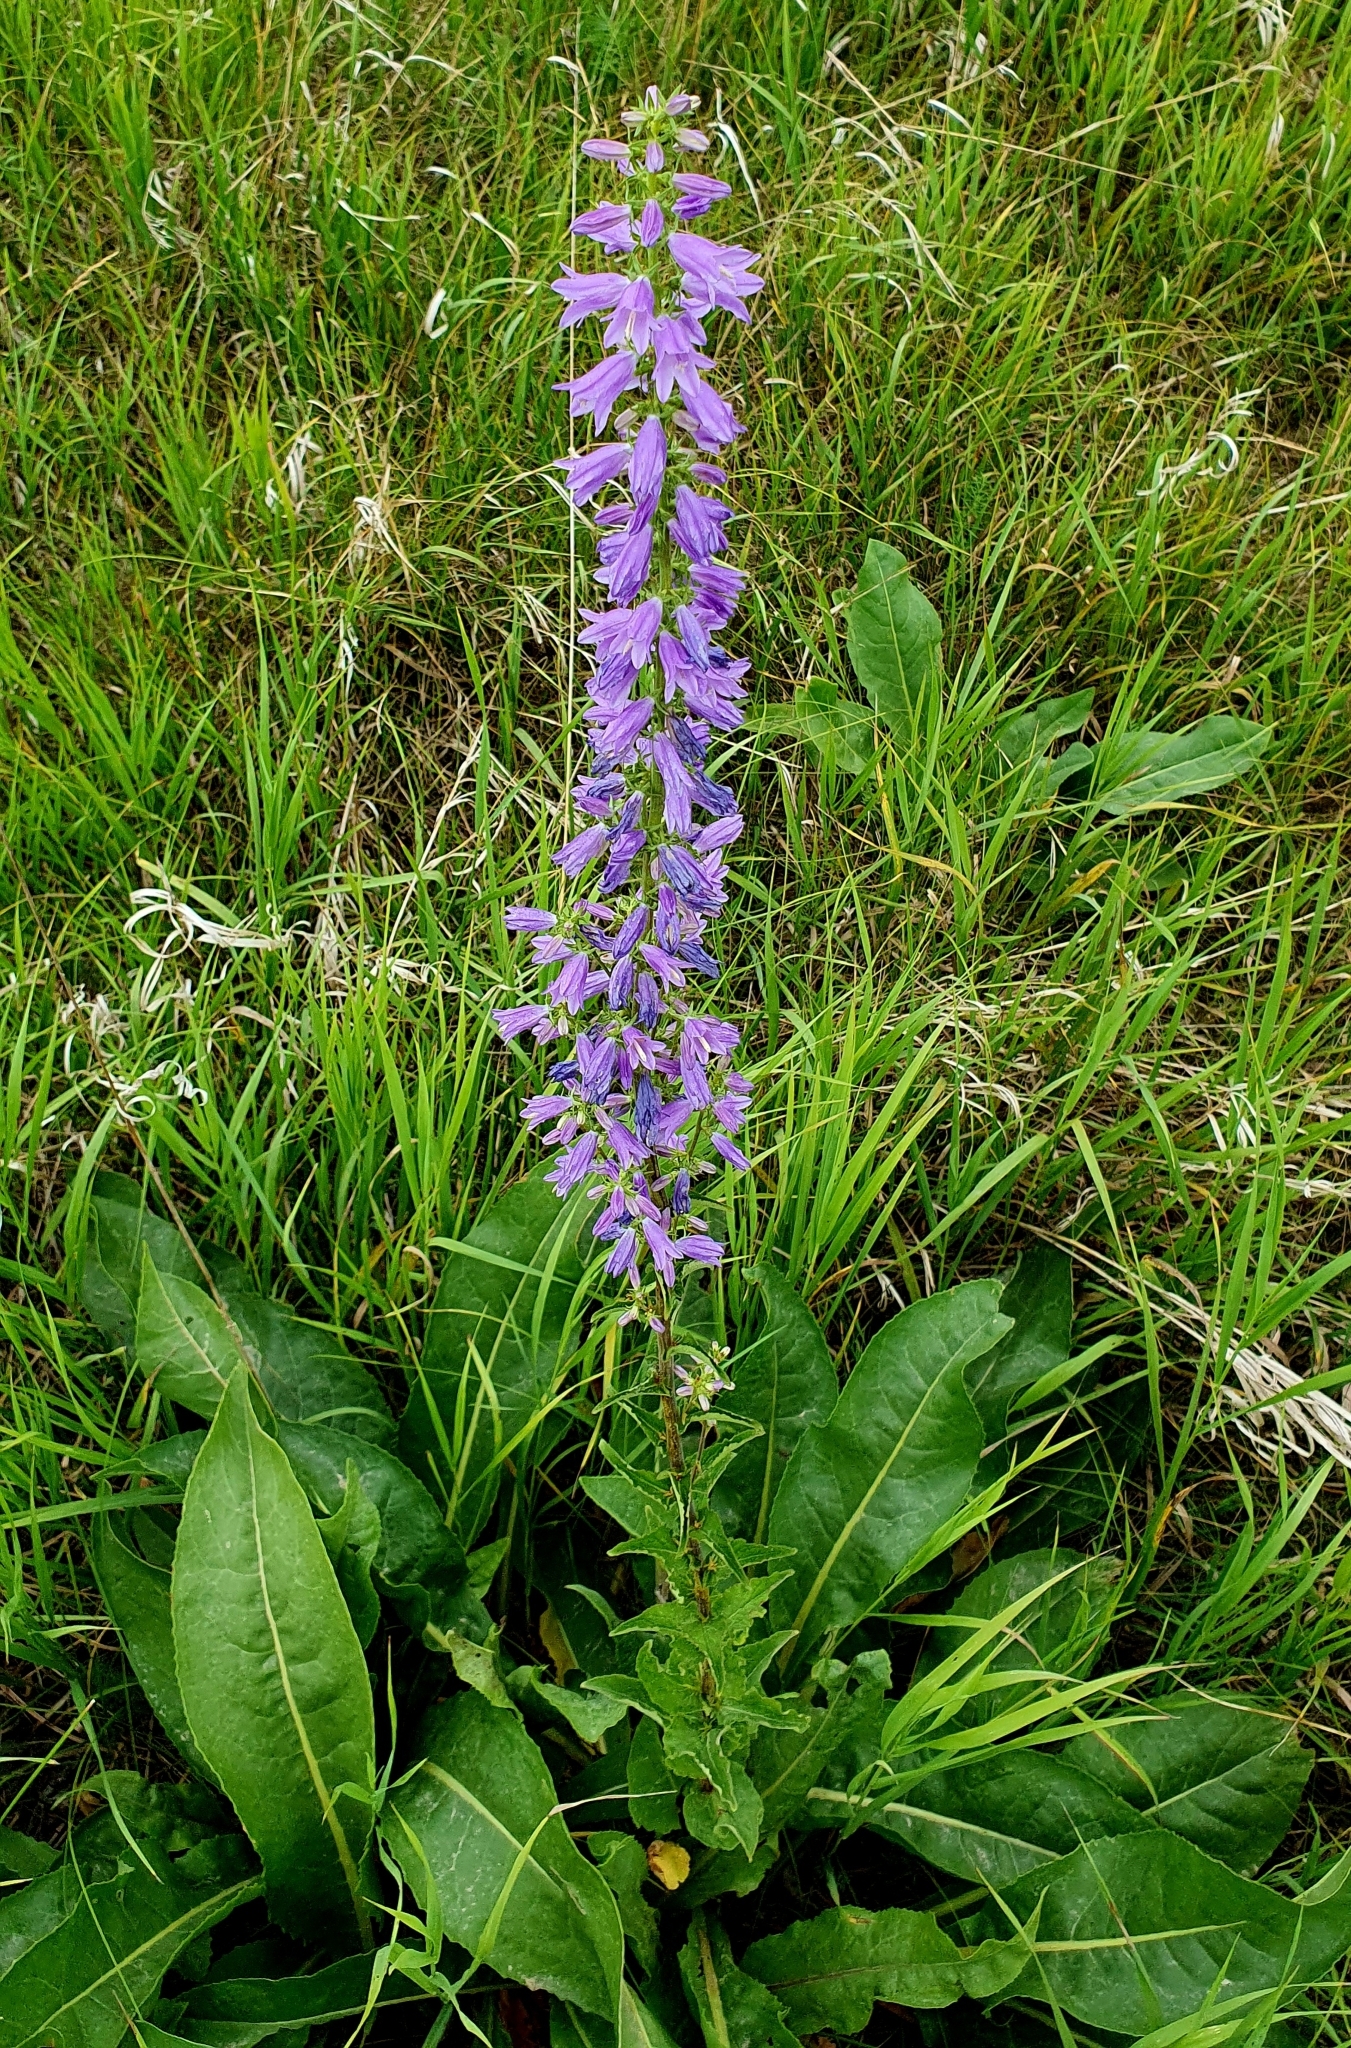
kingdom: Plantae
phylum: Tracheophyta
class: Magnoliopsida
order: Asterales
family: Campanulaceae
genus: Campanula
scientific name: Campanula bononiensis
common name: Pale bellflower
